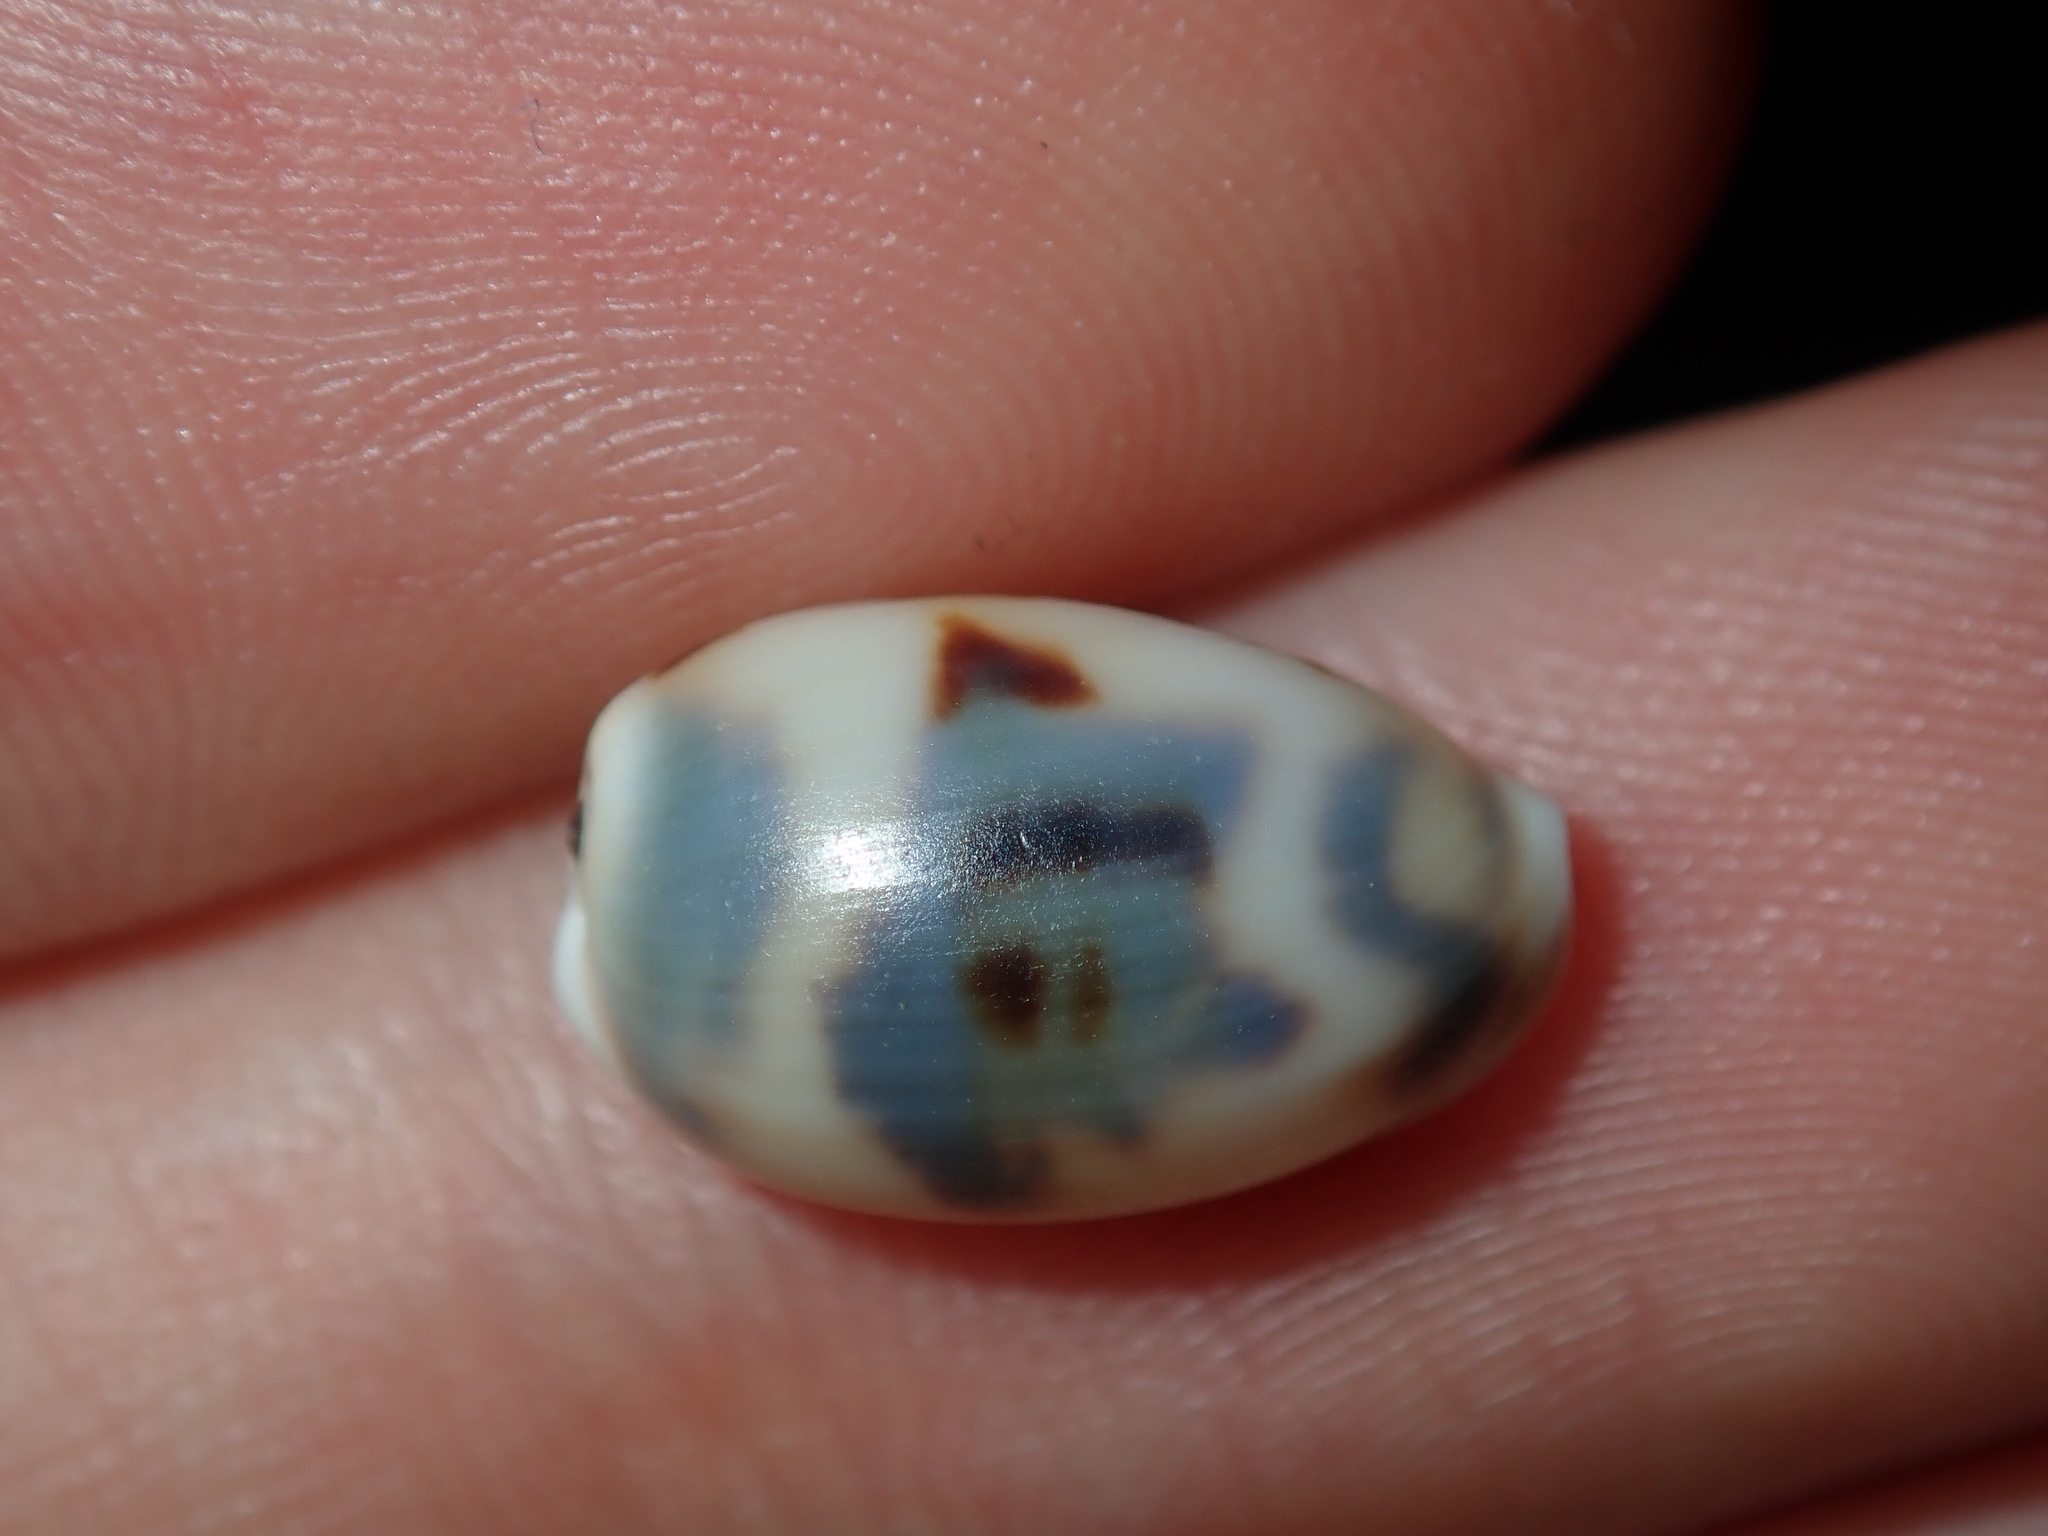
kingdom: Animalia
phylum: Mollusca
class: Gastropoda
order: Littorinimorpha
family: Cypraeidae
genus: Bistolida
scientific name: Bistolida kieneri
